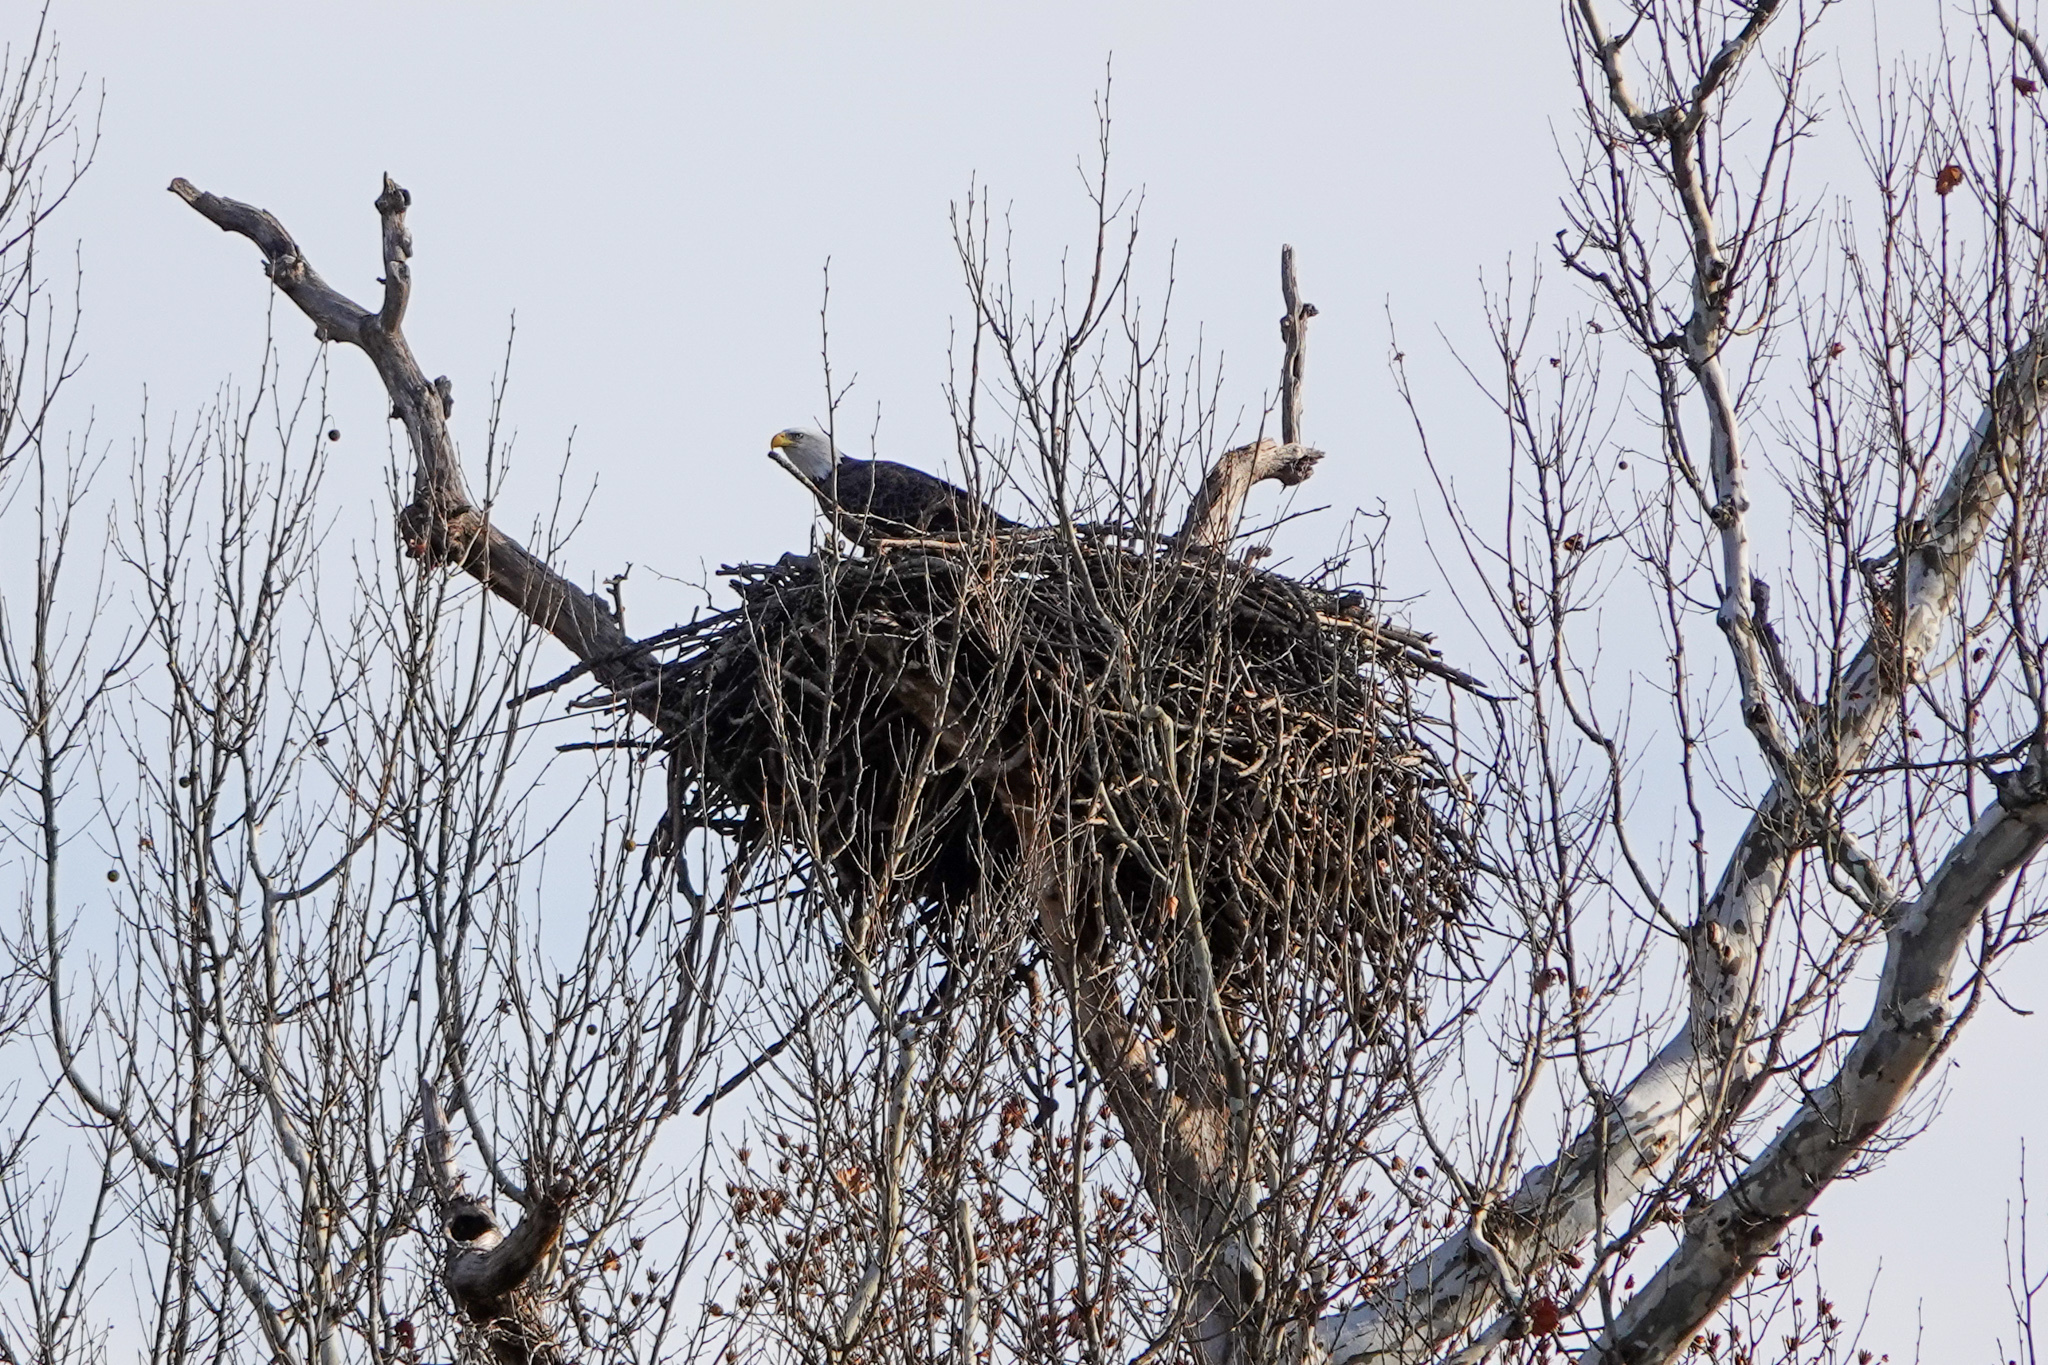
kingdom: Animalia
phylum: Chordata
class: Aves
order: Accipitriformes
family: Accipitridae
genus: Haliaeetus
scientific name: Haliaeetus leucocephalus
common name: Bald eagle
